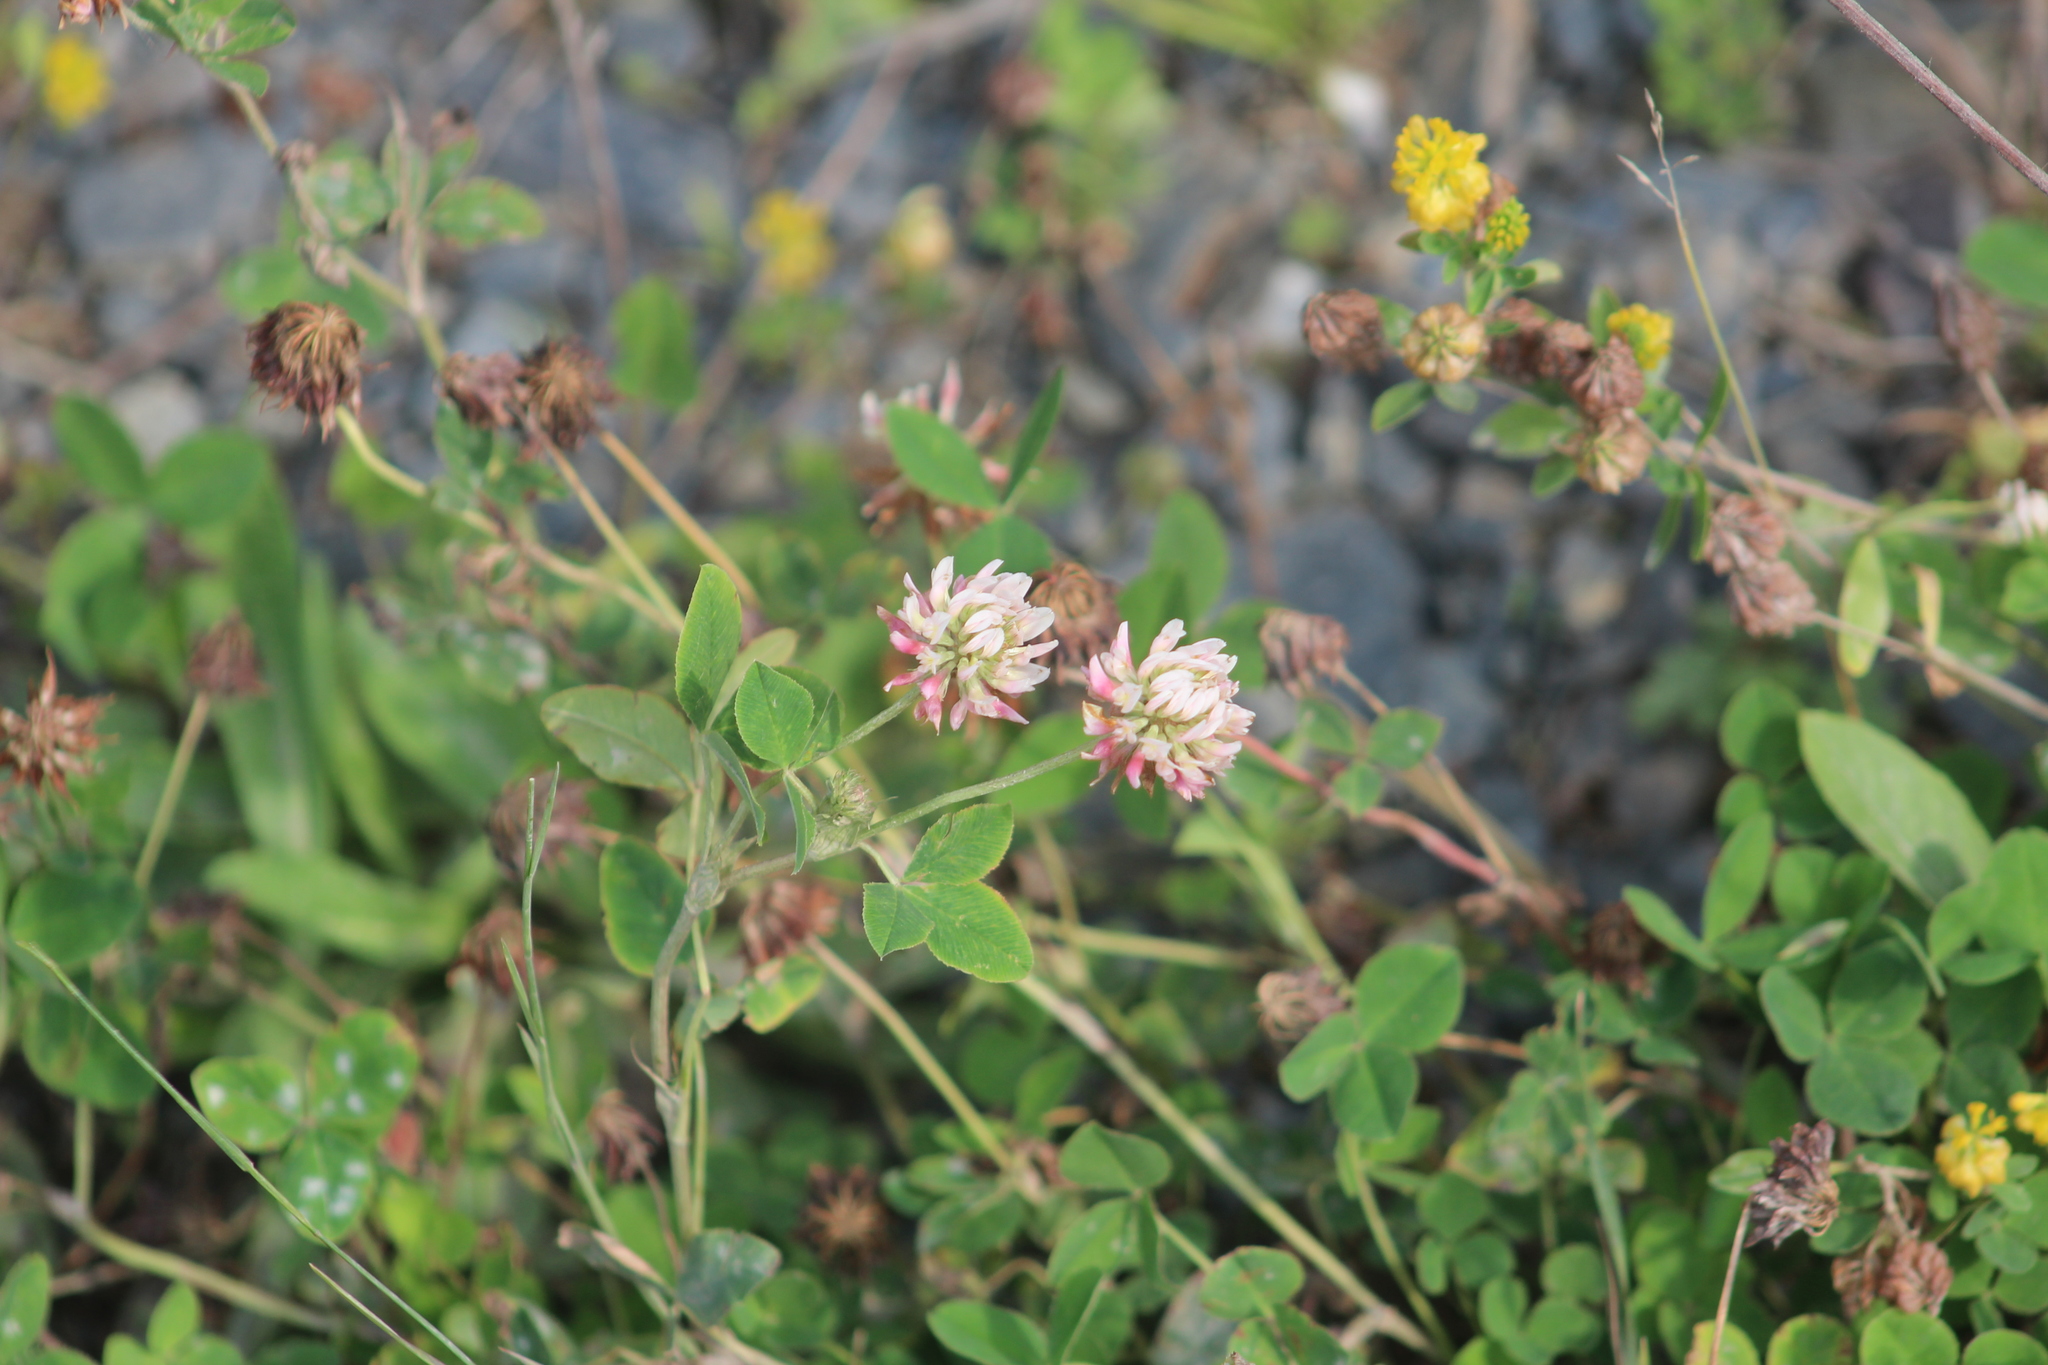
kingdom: Plantae
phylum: Tracheophyta
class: Magnoliopsida
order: Fabales
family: Fabaceae
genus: Trifolium
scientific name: Trifolium hybridum
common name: Alsike clover
